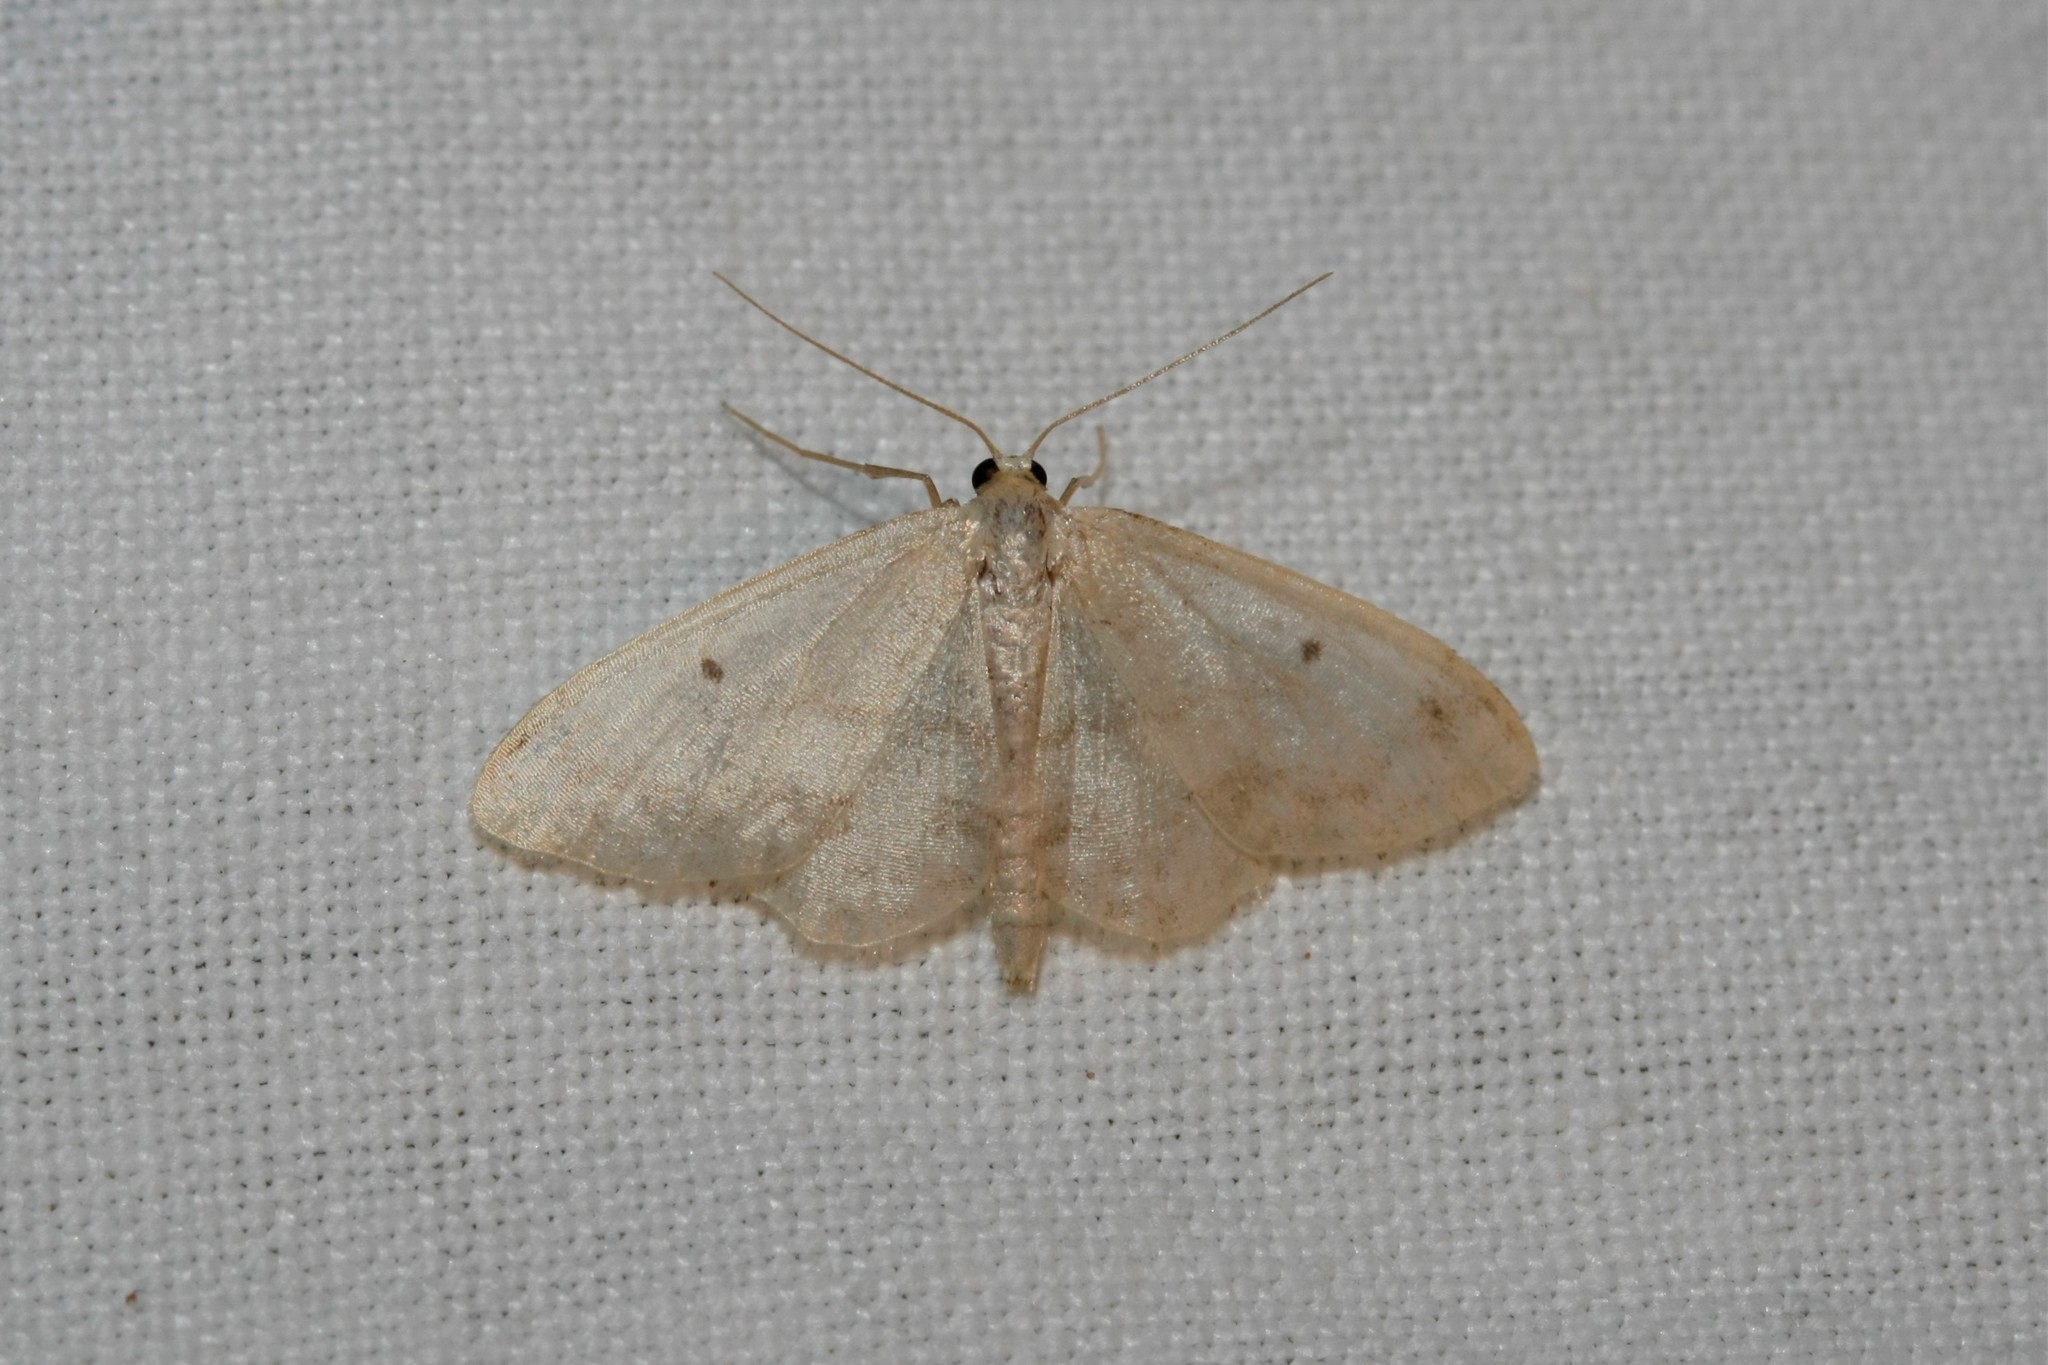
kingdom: Animalia
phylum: Arthropoda
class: Insecta
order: Lepidoptera
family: Geometridae
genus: Idaea
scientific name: Idaea biselata
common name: Small fan-footed wave
